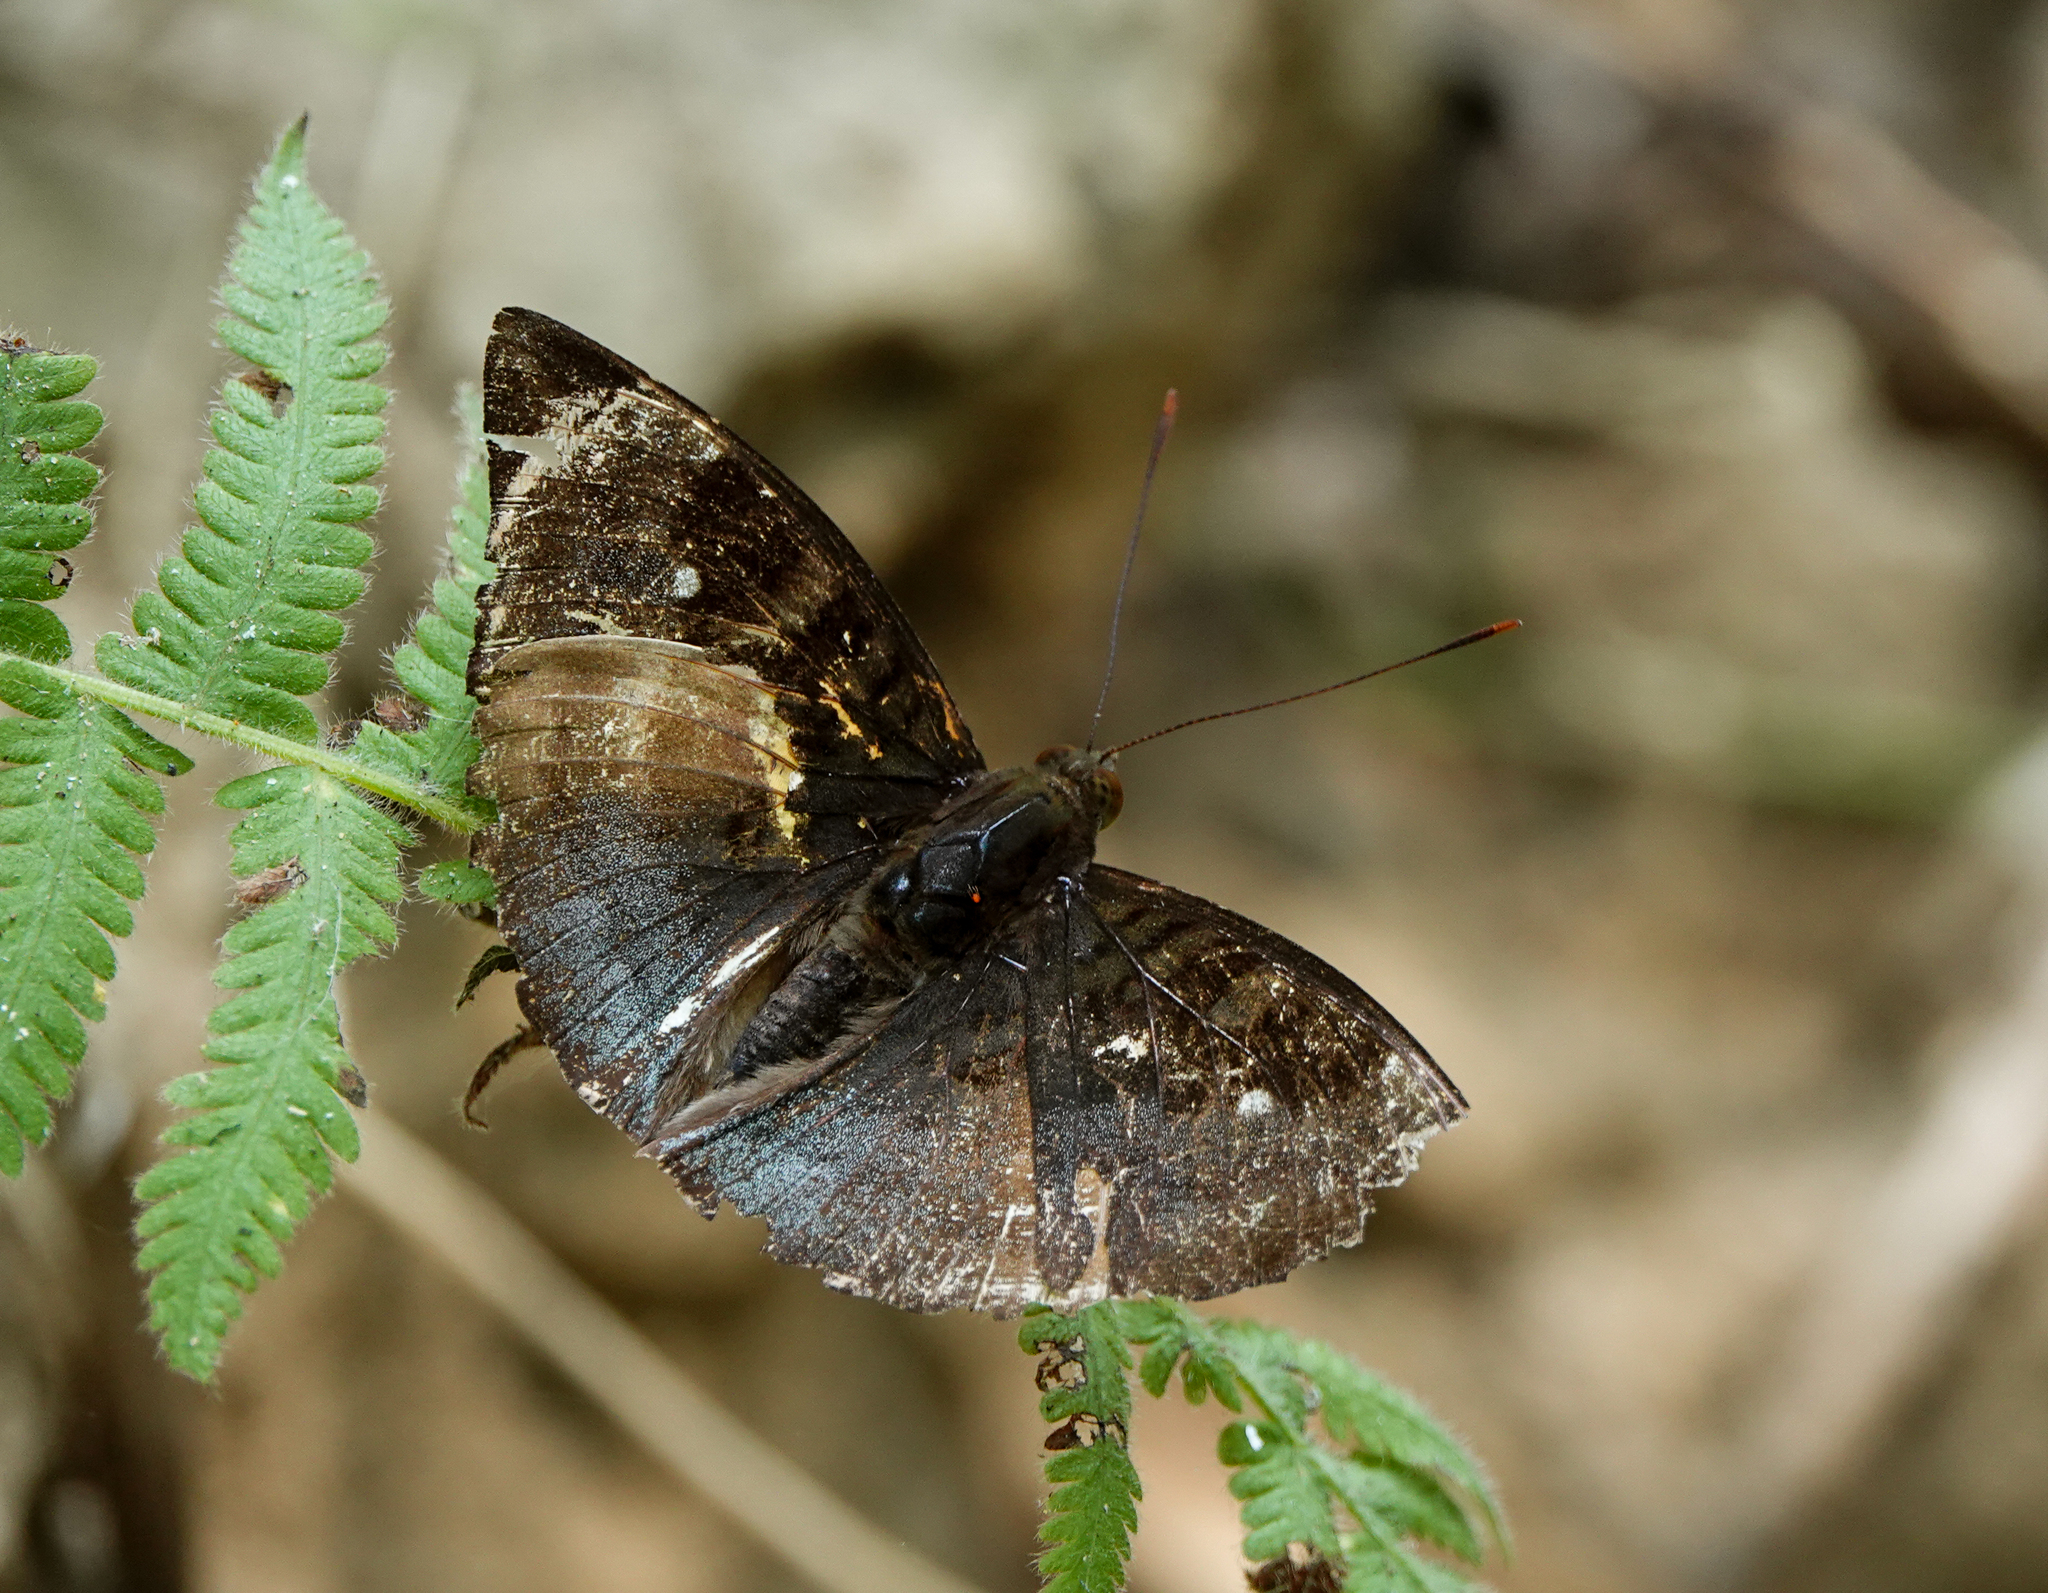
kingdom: Animalia
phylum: Arthropoda
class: Insecta
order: Lepidoptera
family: Nymphalidae
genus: Euthalia
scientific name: Euthalia monina
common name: Powdered baron
